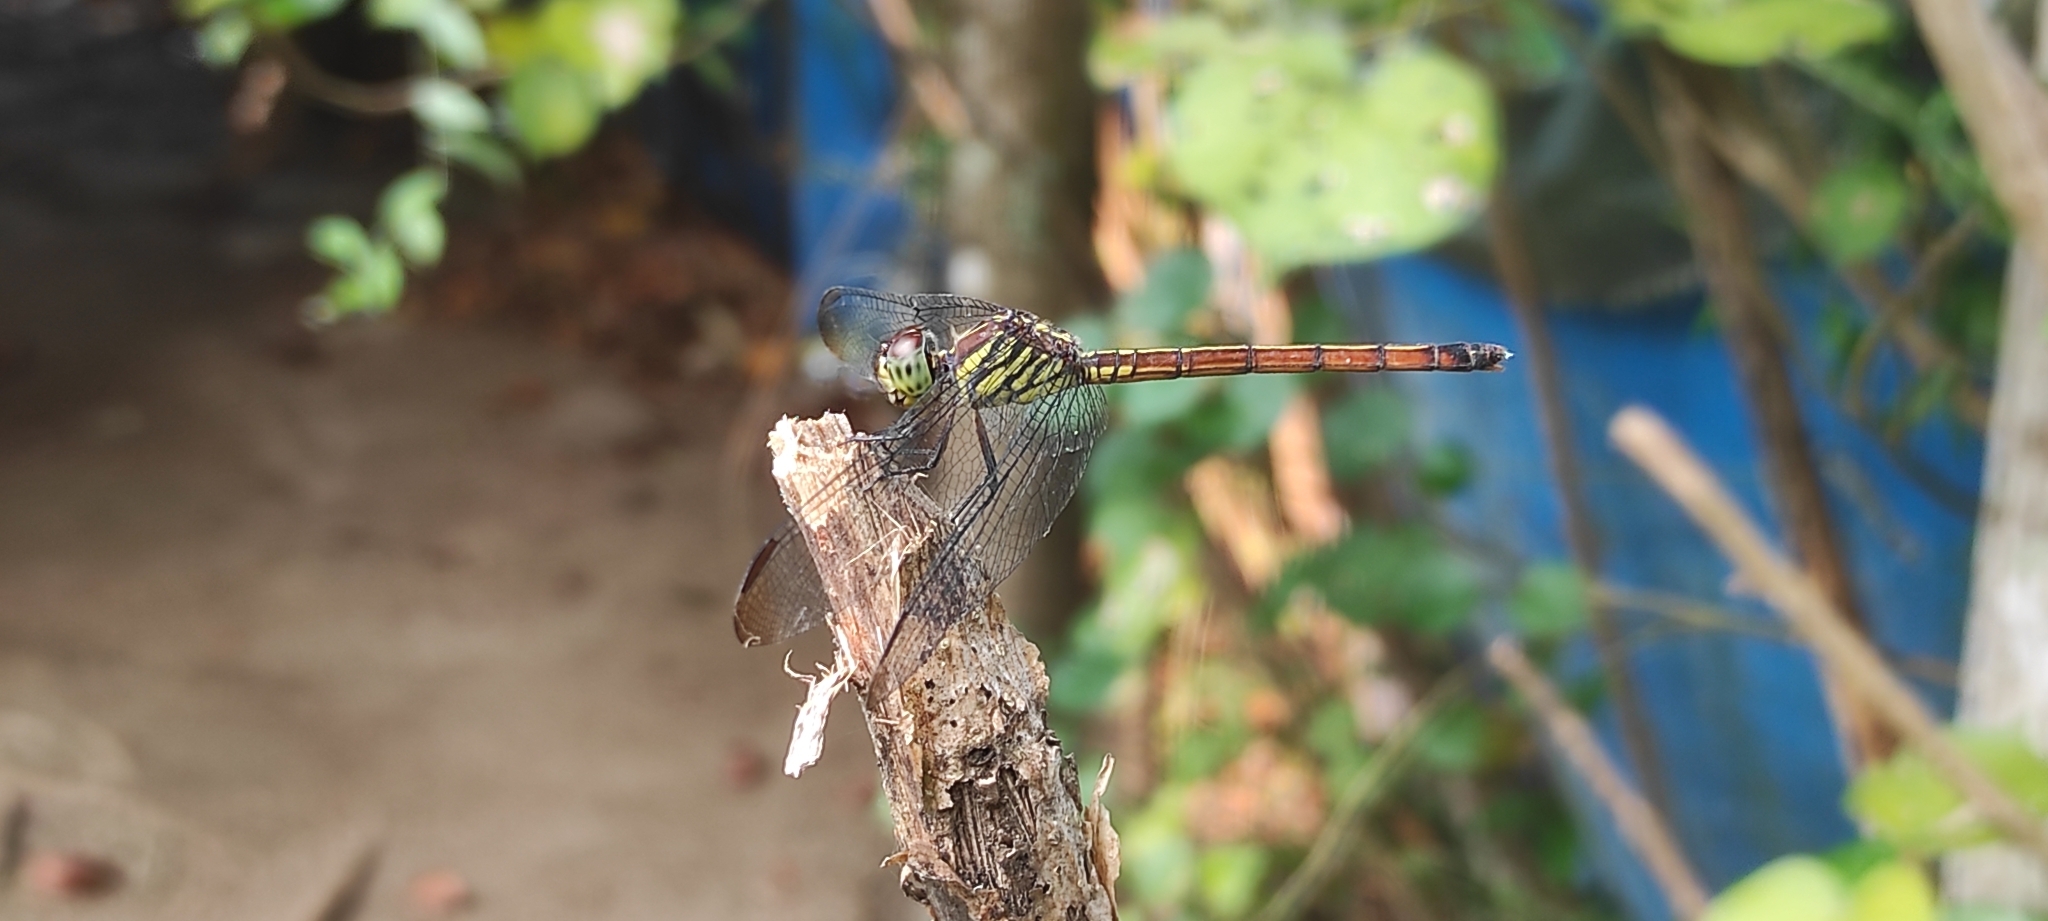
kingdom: Animalia
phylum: Arthropoda
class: Insecta
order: Odonata
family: Libellulidae
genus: Lathrecista
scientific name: Lathrecista asiatica
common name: Scarlet grenadier
